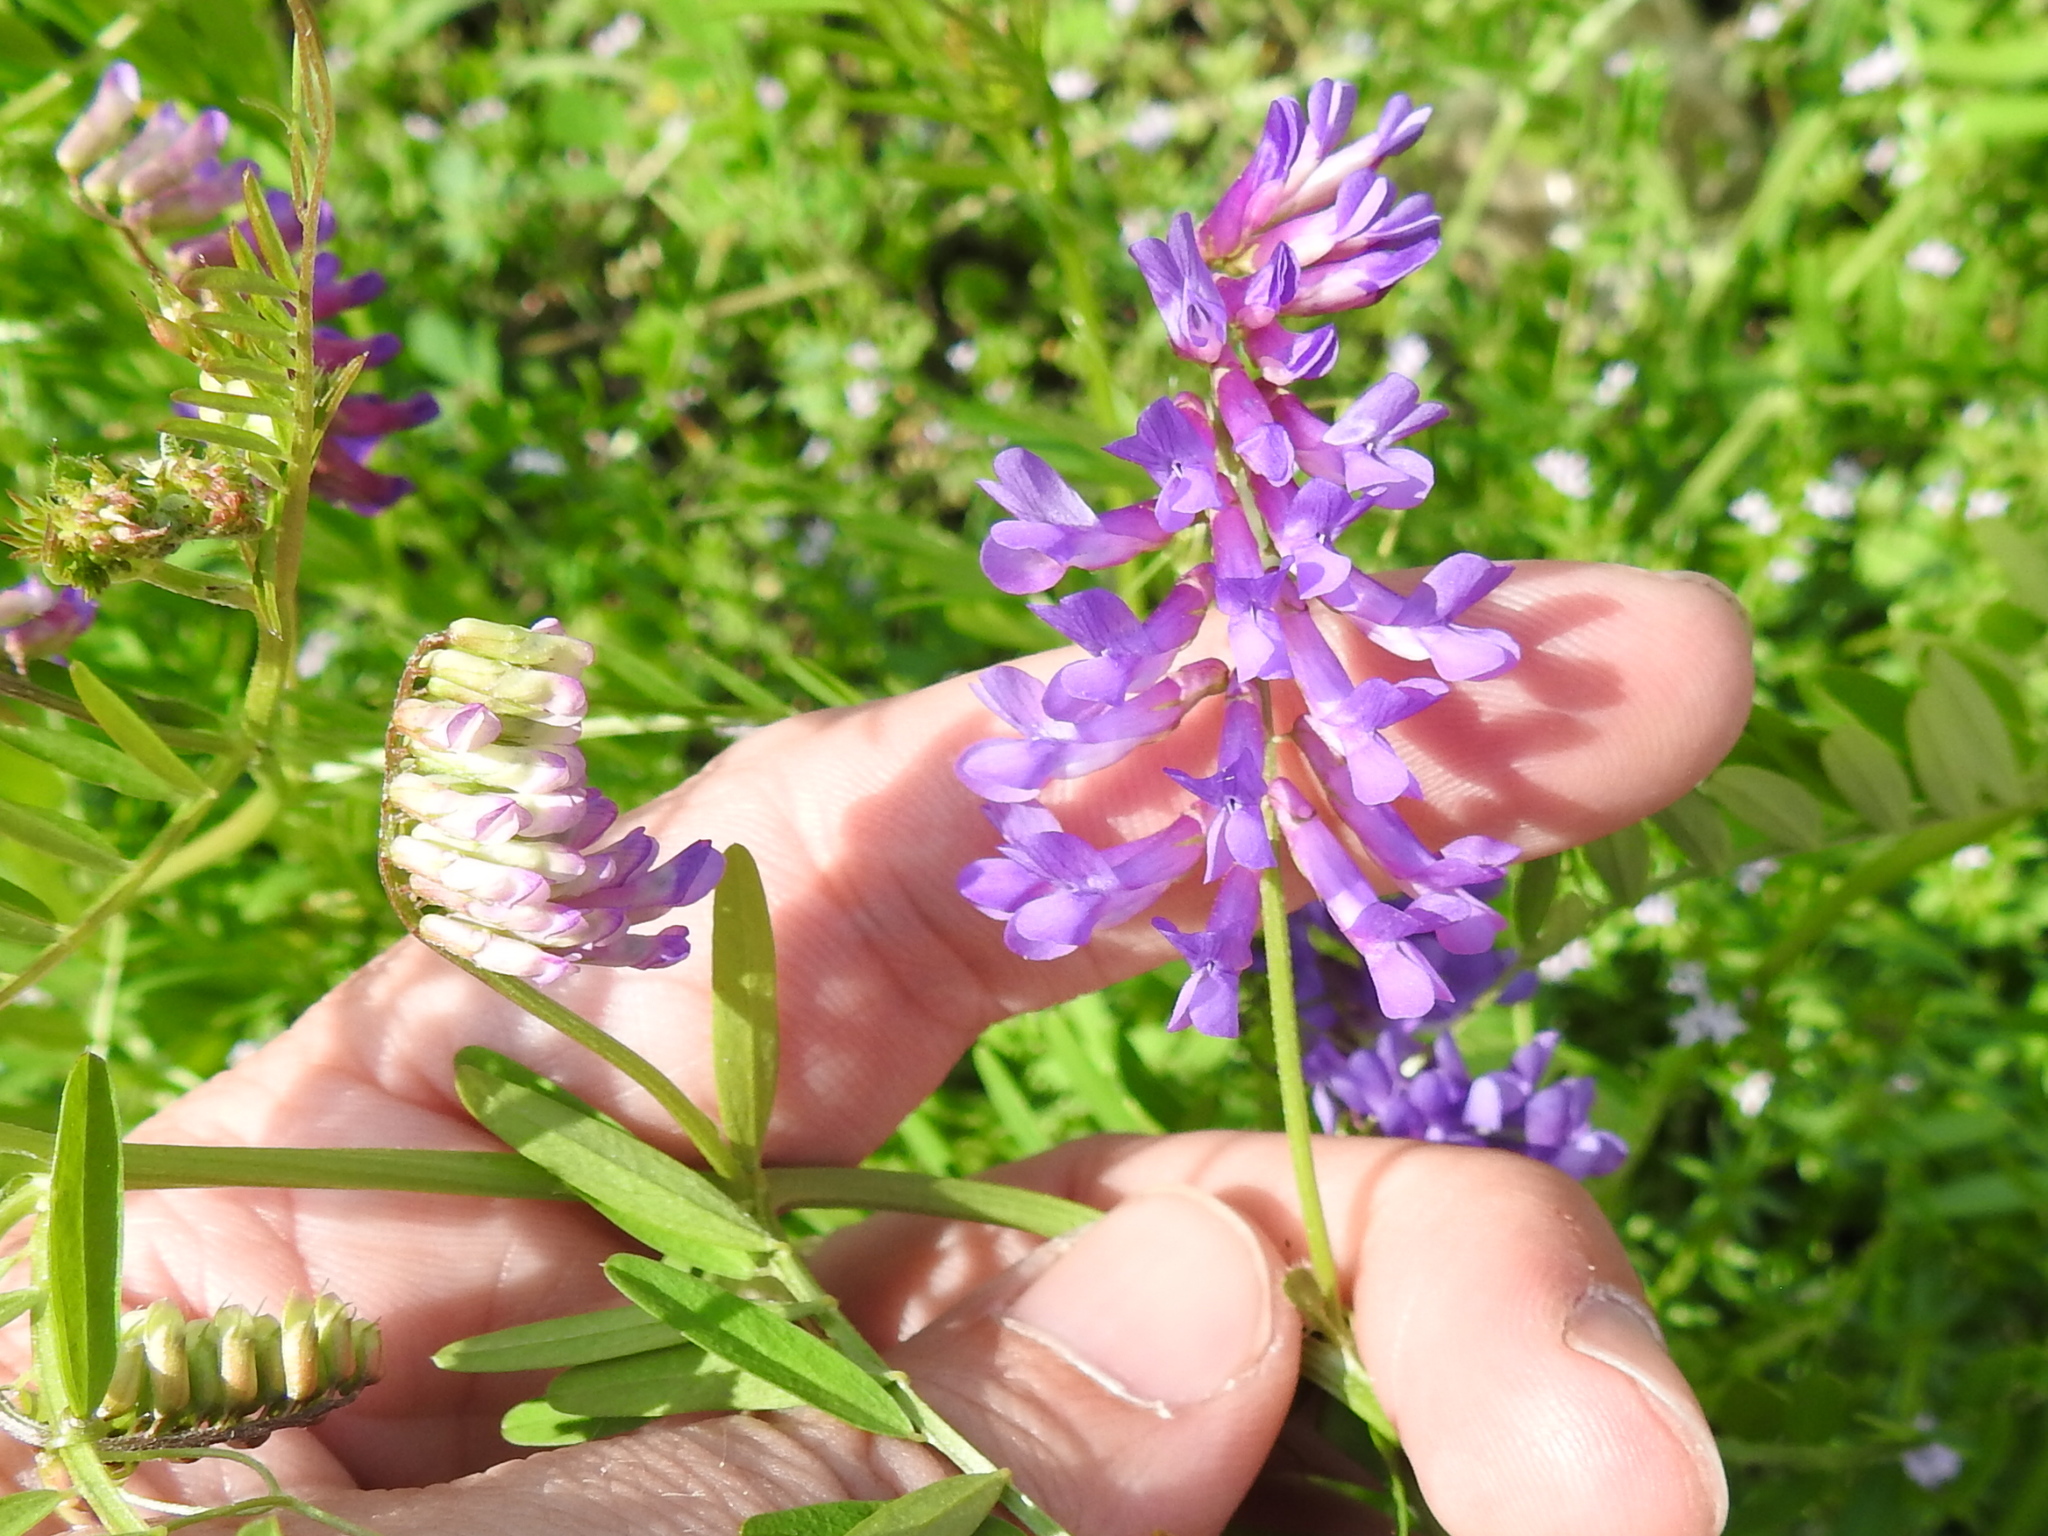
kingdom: Plantae
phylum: Tracheophyta
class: Magnoliopsida
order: Fabales
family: Fabaceae
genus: Vicia
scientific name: Vicia villosa
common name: Fodder vetch
